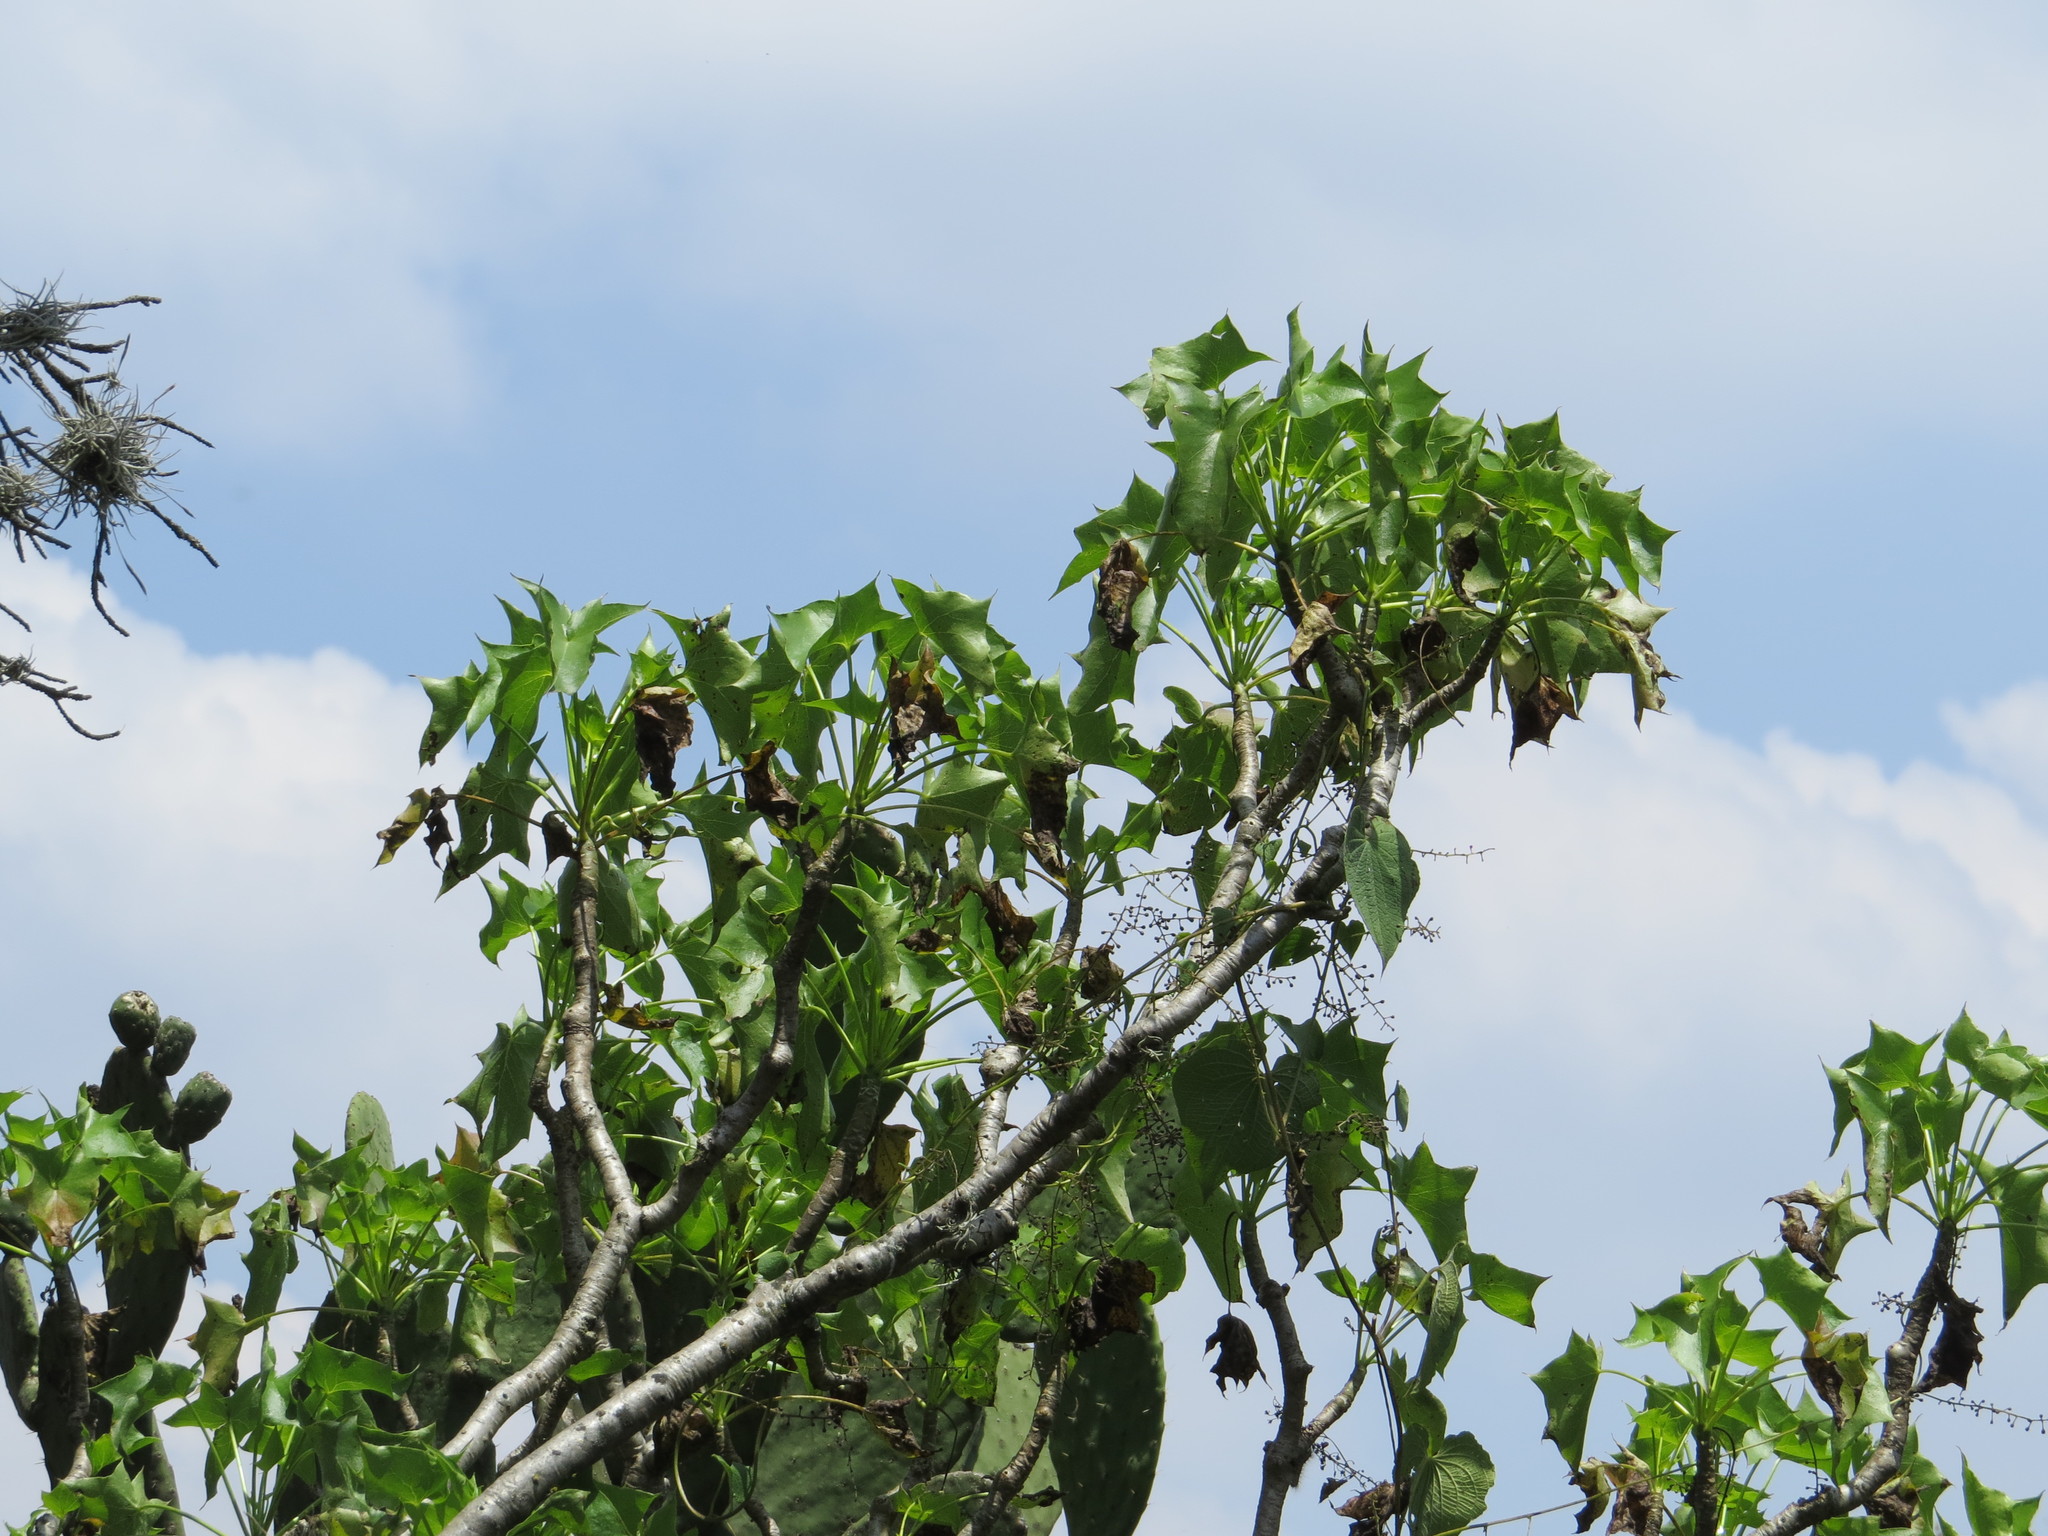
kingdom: Plantae
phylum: Tracheophyta
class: Magnoliopsida
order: Asterales
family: Asteraceae
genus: Pittocaulon
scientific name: Pittocaulon praecox
